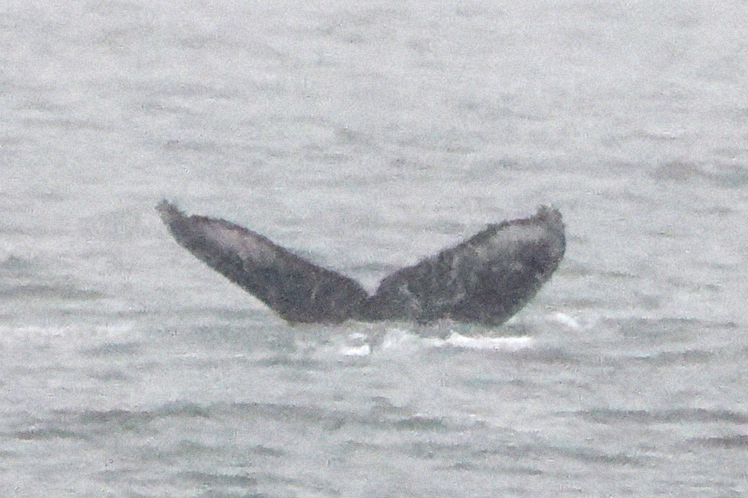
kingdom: Animalia
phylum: Chordata
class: Mammalia
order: Cetacea
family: Balaenopteridae
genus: Megaptera
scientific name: Megaptera novaeangliae
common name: Humpback whale
